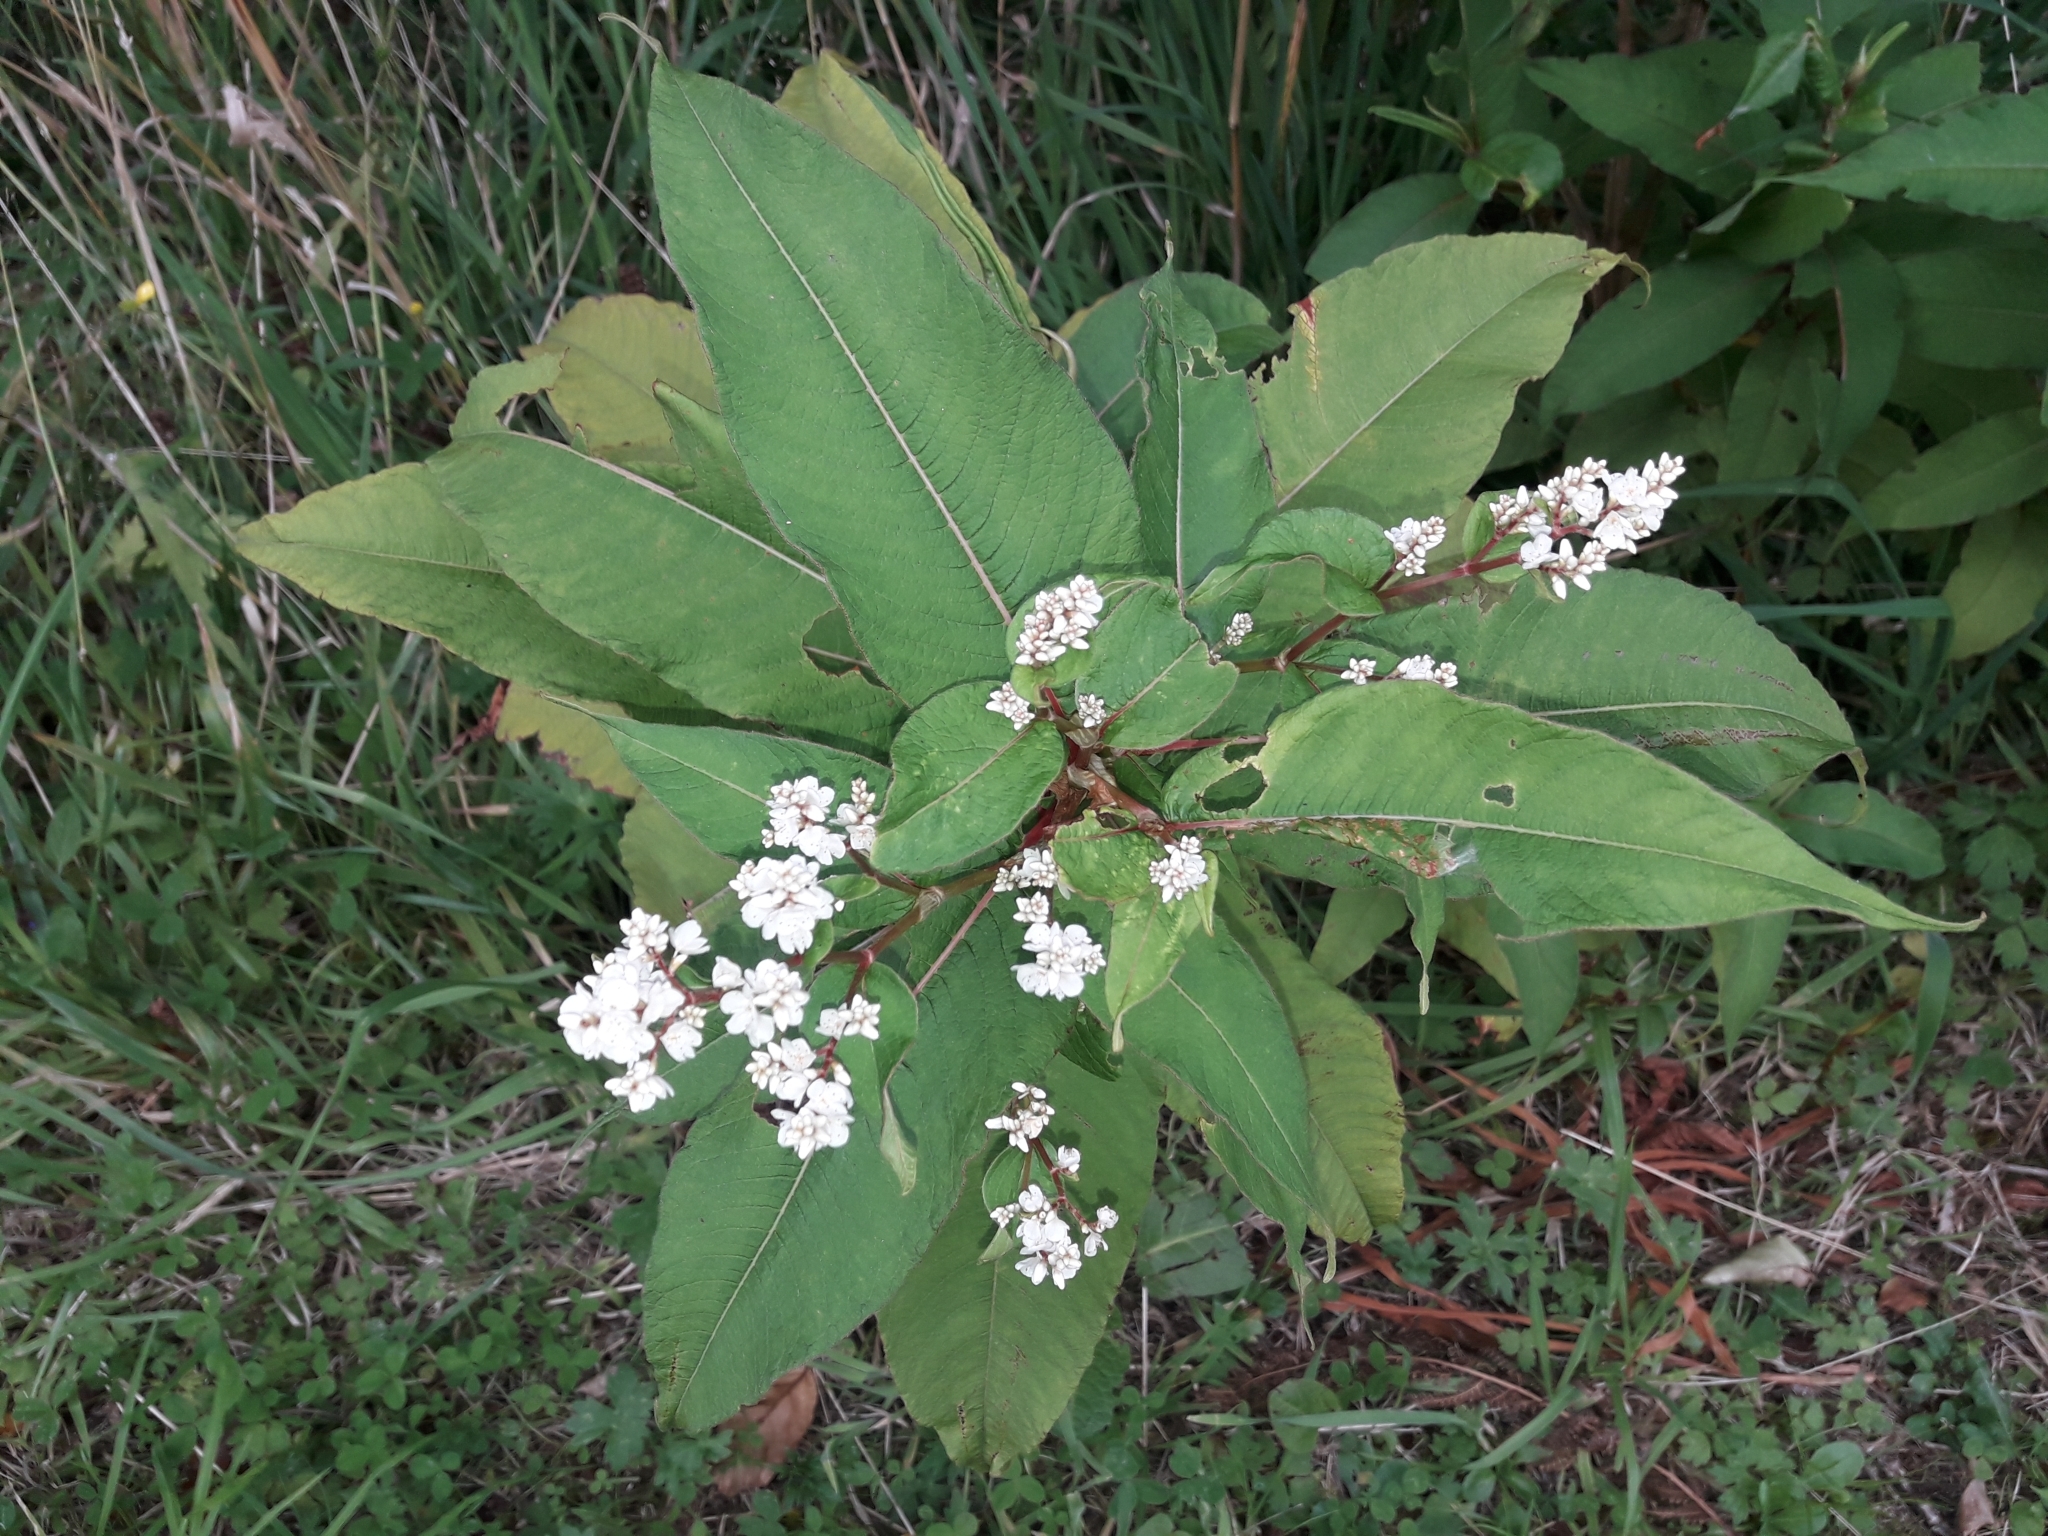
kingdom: Plantae
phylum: Tracheophyta
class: Magnoliopsida
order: Caryophyllales
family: Polygonaceae
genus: Koenigia
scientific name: Koenigia polystachya
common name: Himalayan knotweed
